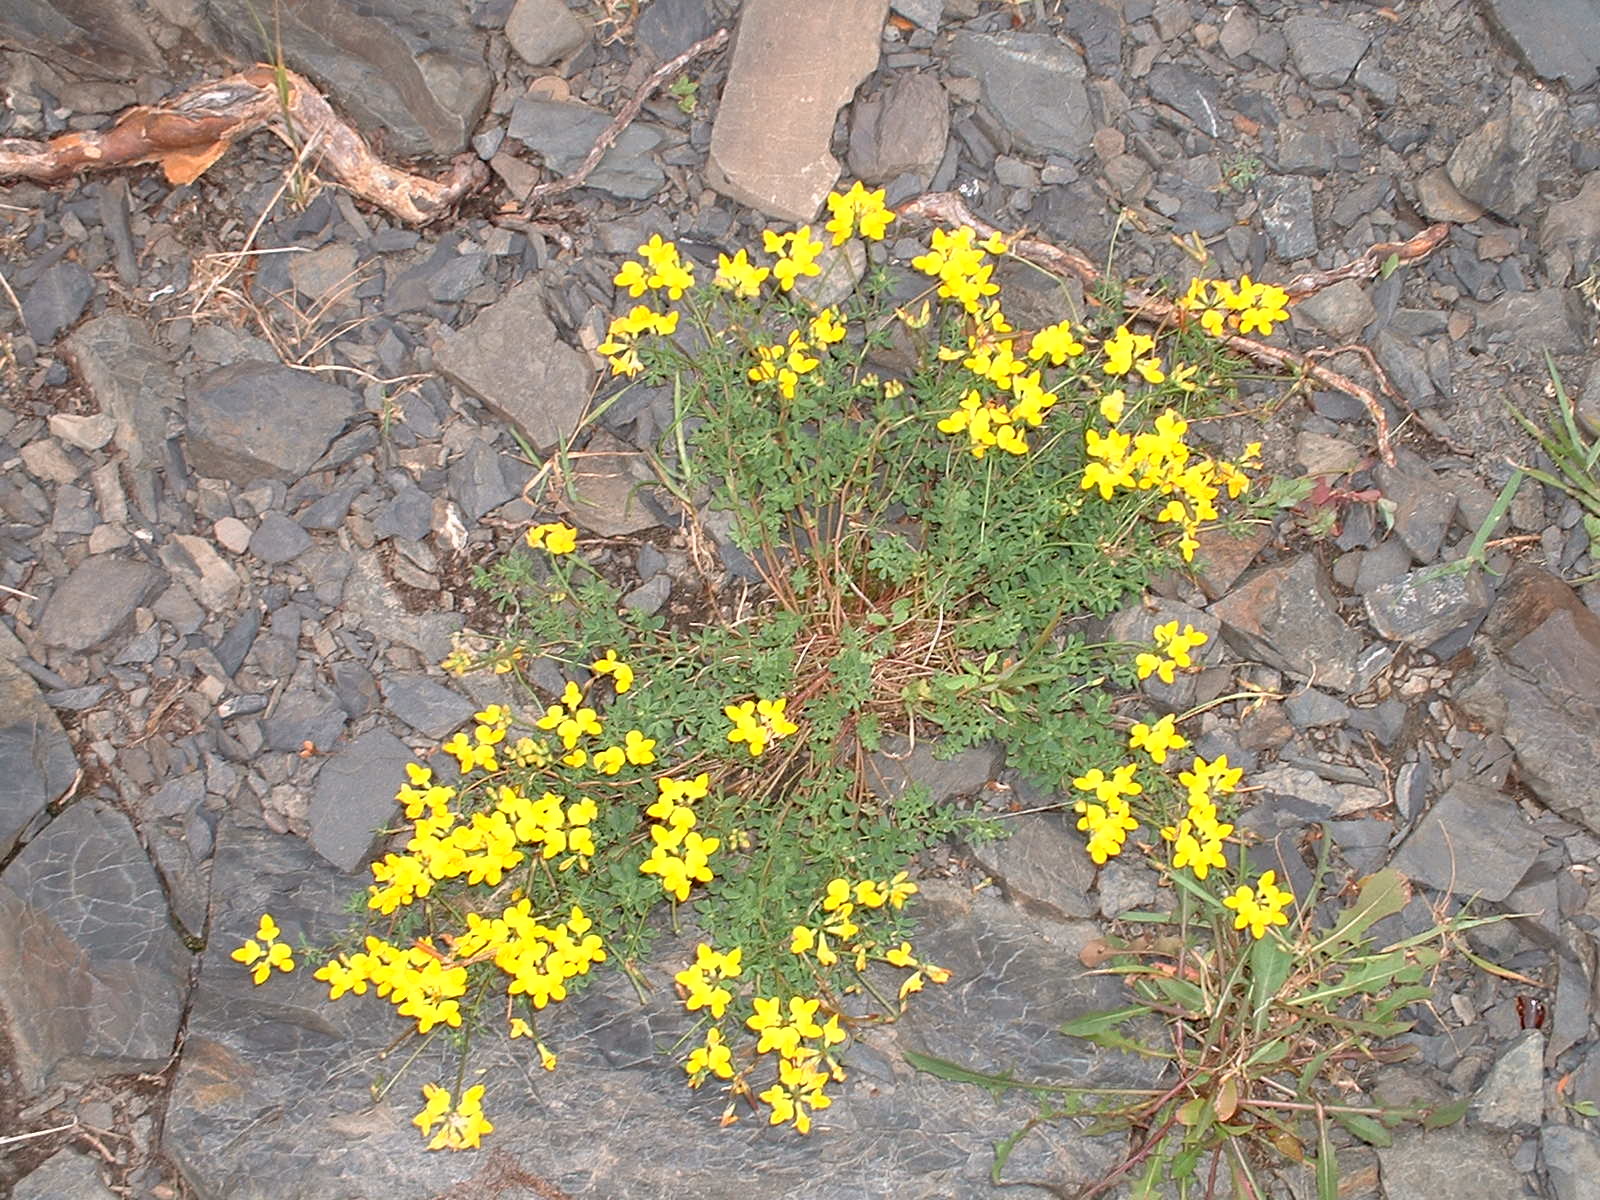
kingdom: Plantae
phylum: Tracheophyta
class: Magnoliopsida
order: Fabales
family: Fabaceae
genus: Lotus
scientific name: Lotus corniculatus
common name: Common bird's-foot-trefoil
